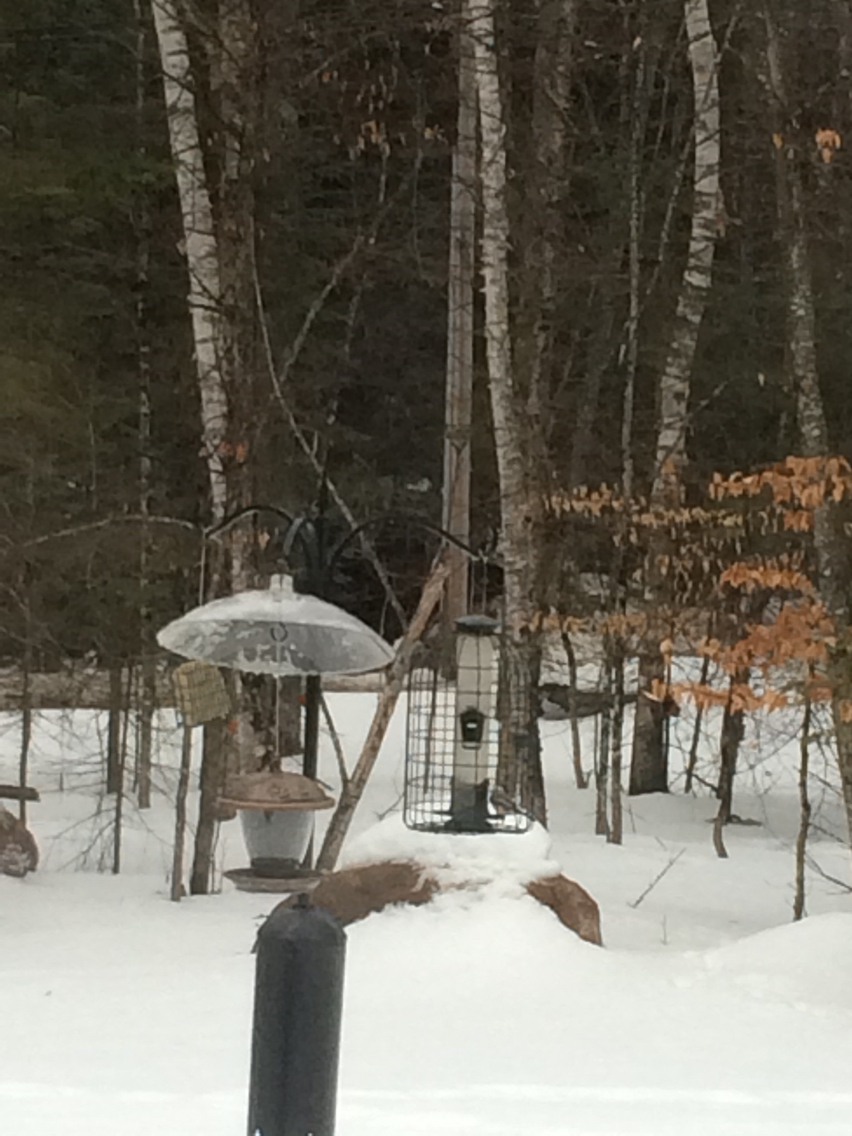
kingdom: Animalia
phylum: Chordata
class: Aves
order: Passeriformes
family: Paridae
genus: Poecile
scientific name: Poecile atricapillus
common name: Black-capped chickadee
